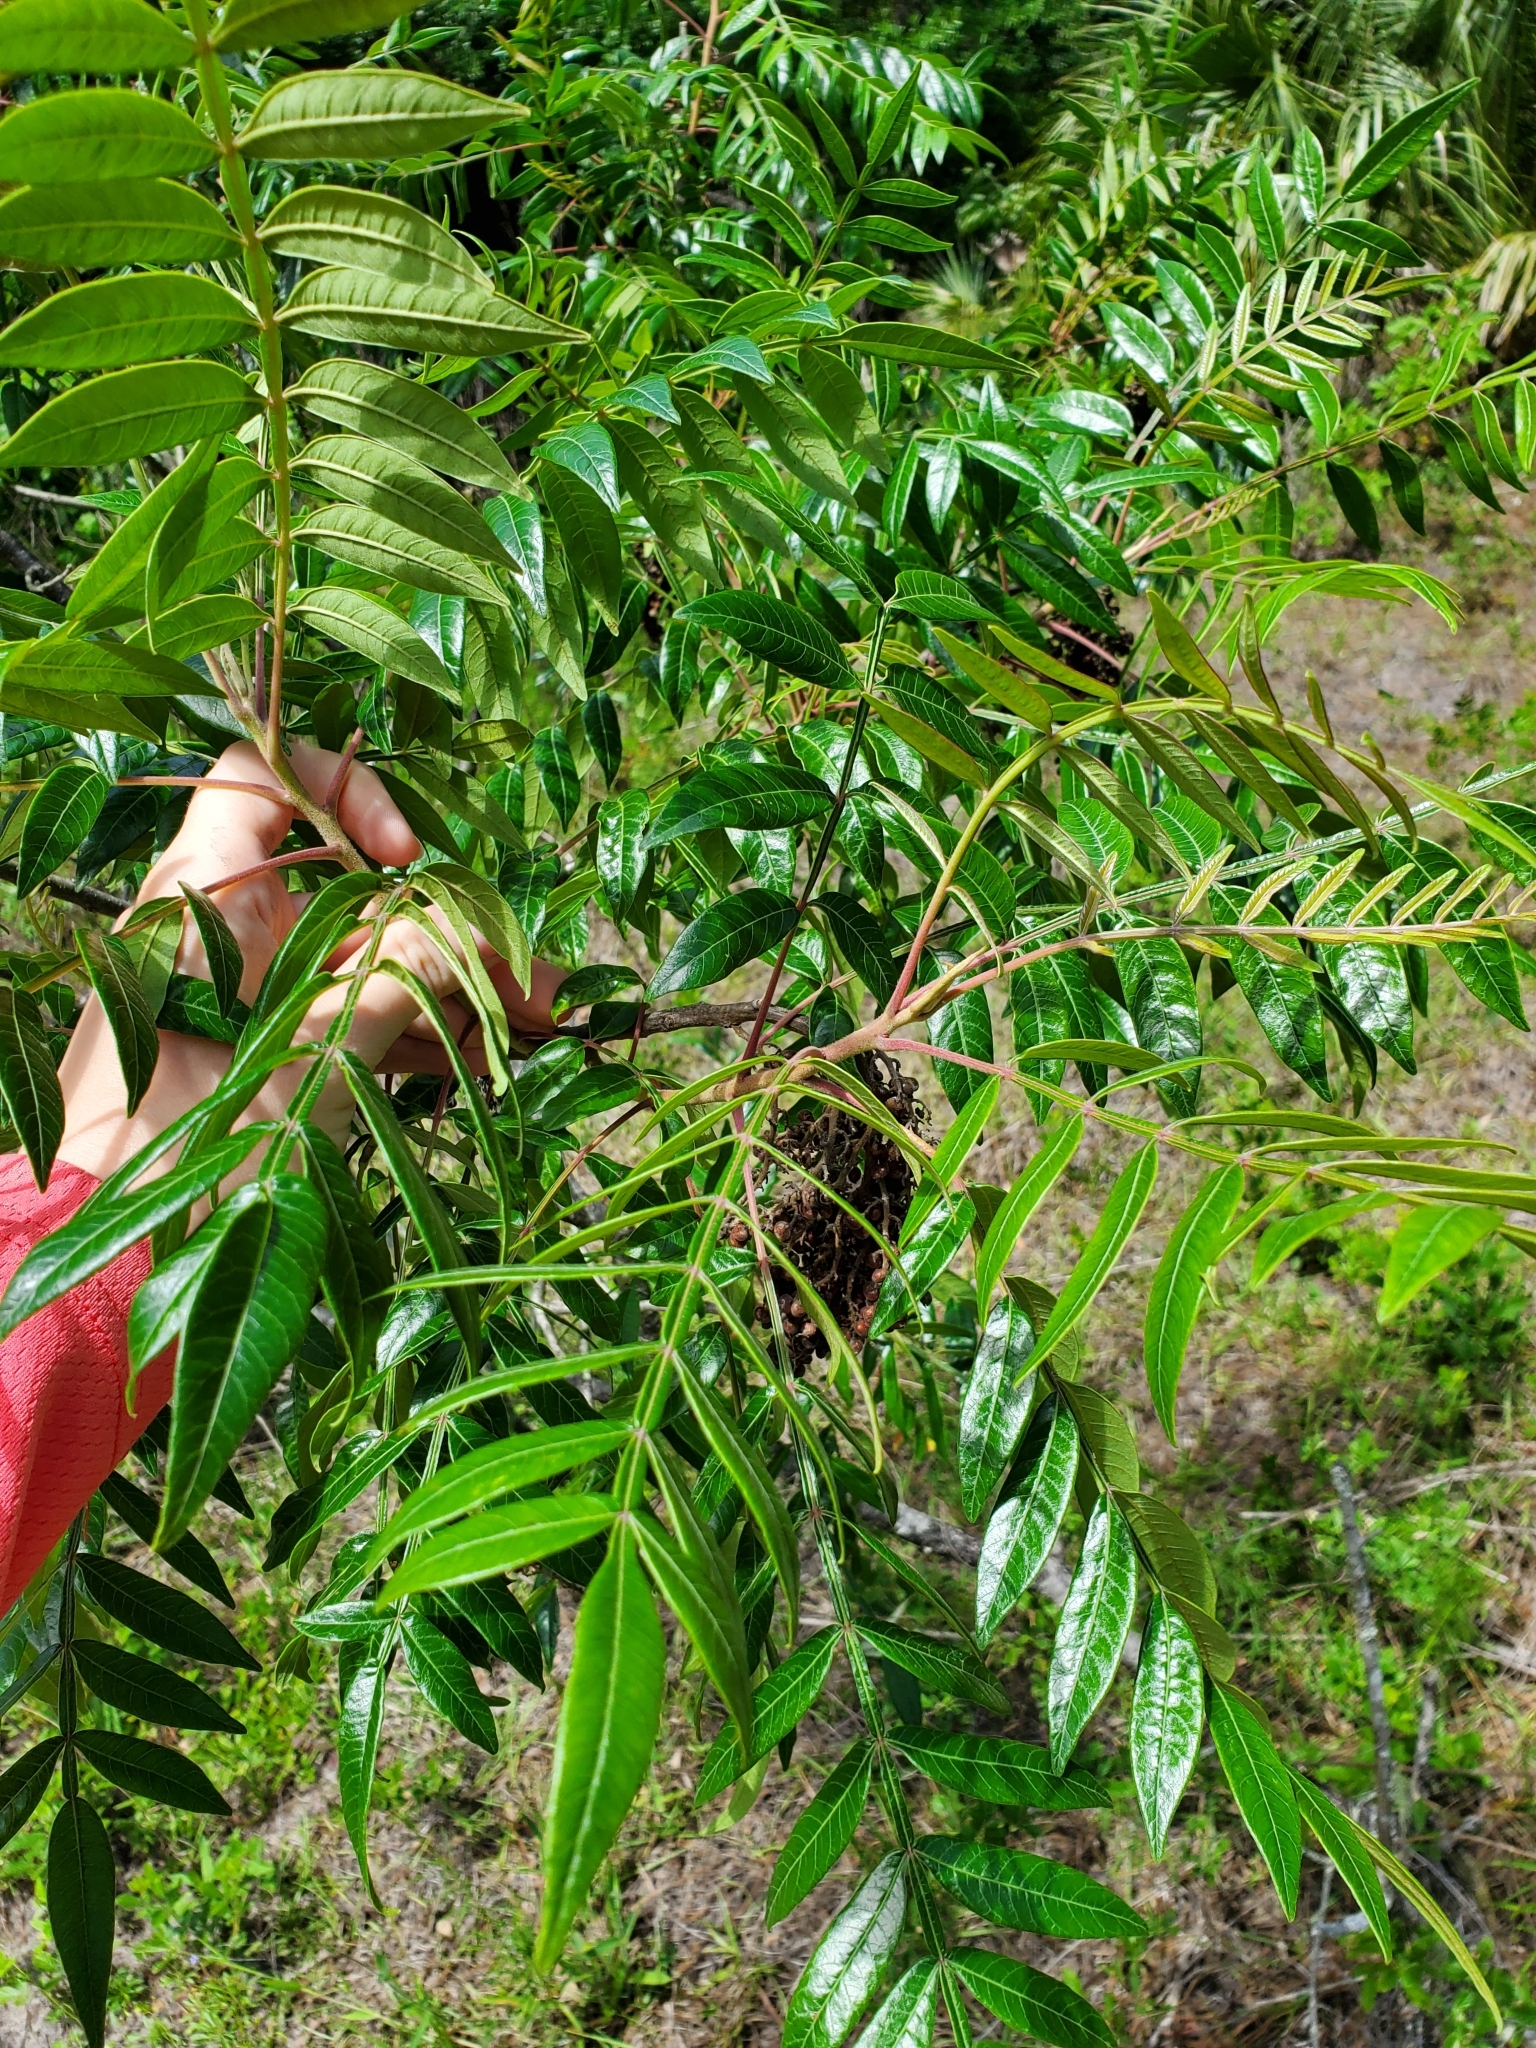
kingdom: Plantae
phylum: Tracheophyta
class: Magnoliopsida
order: Sapindales
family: Anacardiaceae
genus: Rhus
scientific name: Rhus copallina
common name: Shining sumac
